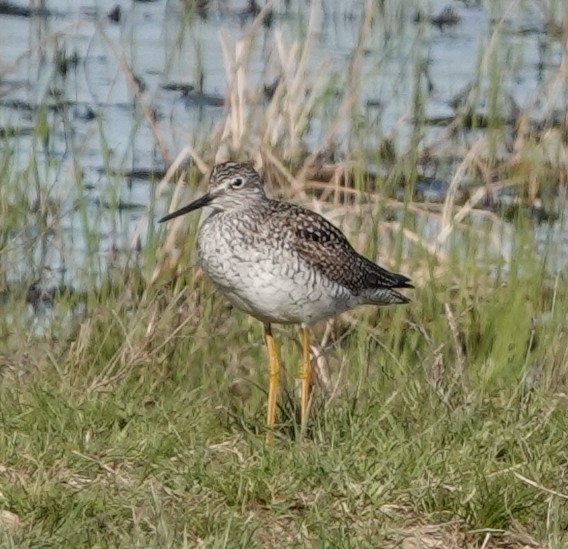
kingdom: Animalia
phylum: Chordata
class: Aves
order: Charadriiformes
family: Scolopacidae
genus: Tringa
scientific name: Tringa melanoleuca
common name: Greater yellowlegs
